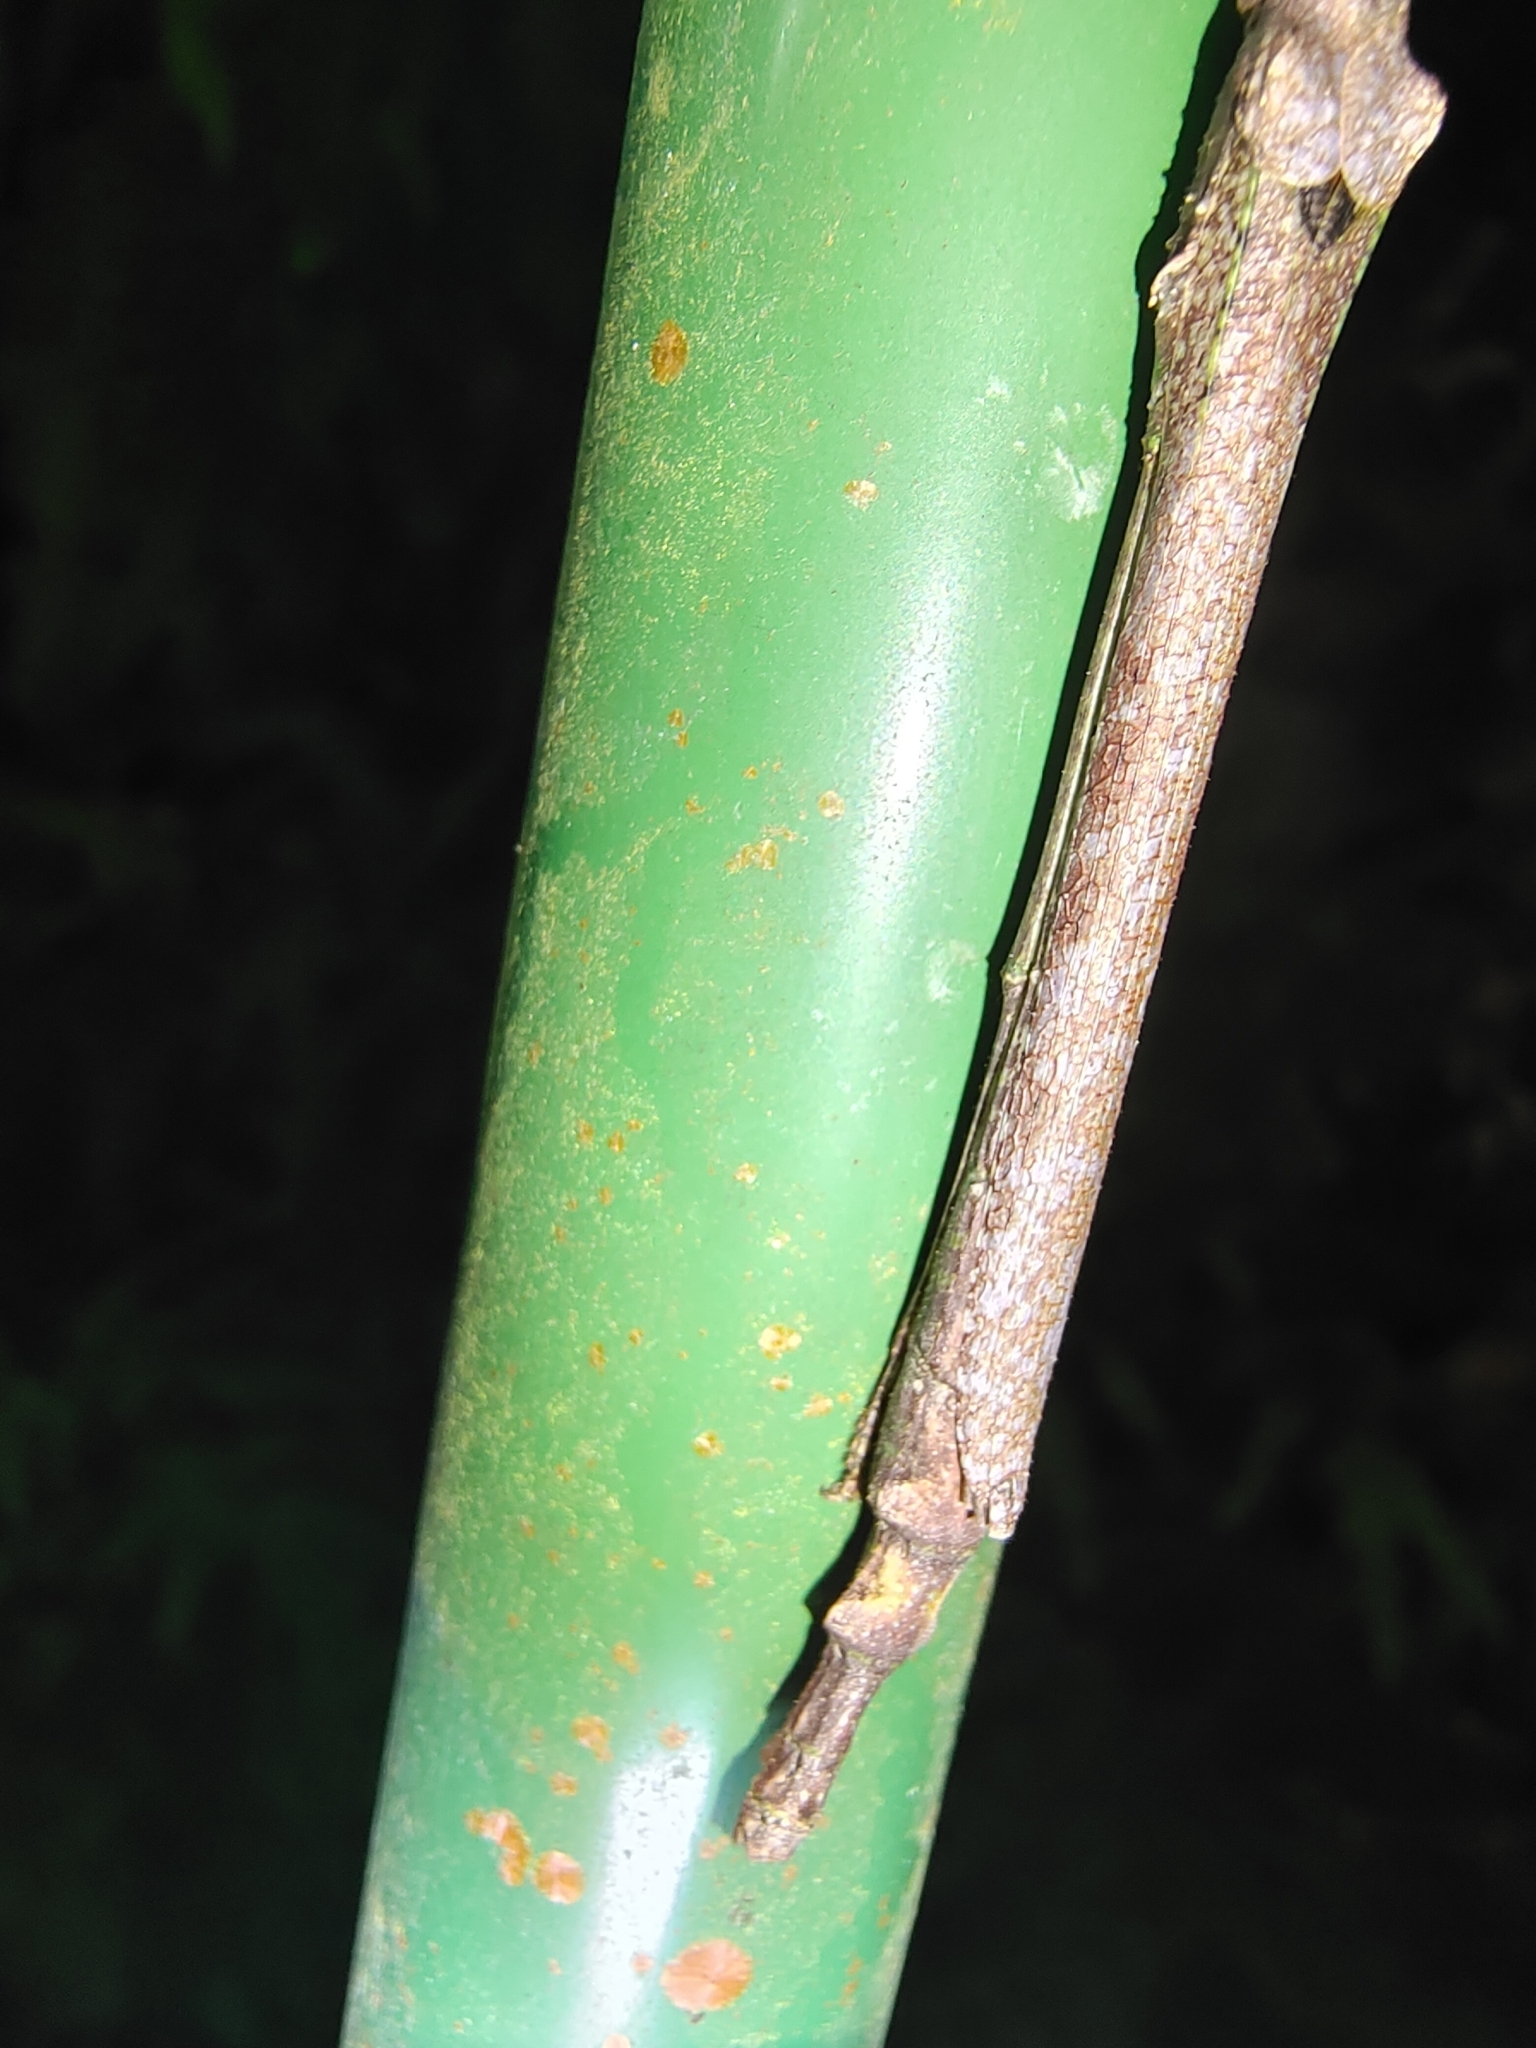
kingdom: Animalia
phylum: Arthropoda
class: Insecta
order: Phasmida
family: Lonchodidae
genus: Planososibia
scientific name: Planososibia esacus
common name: Banded sosibia
